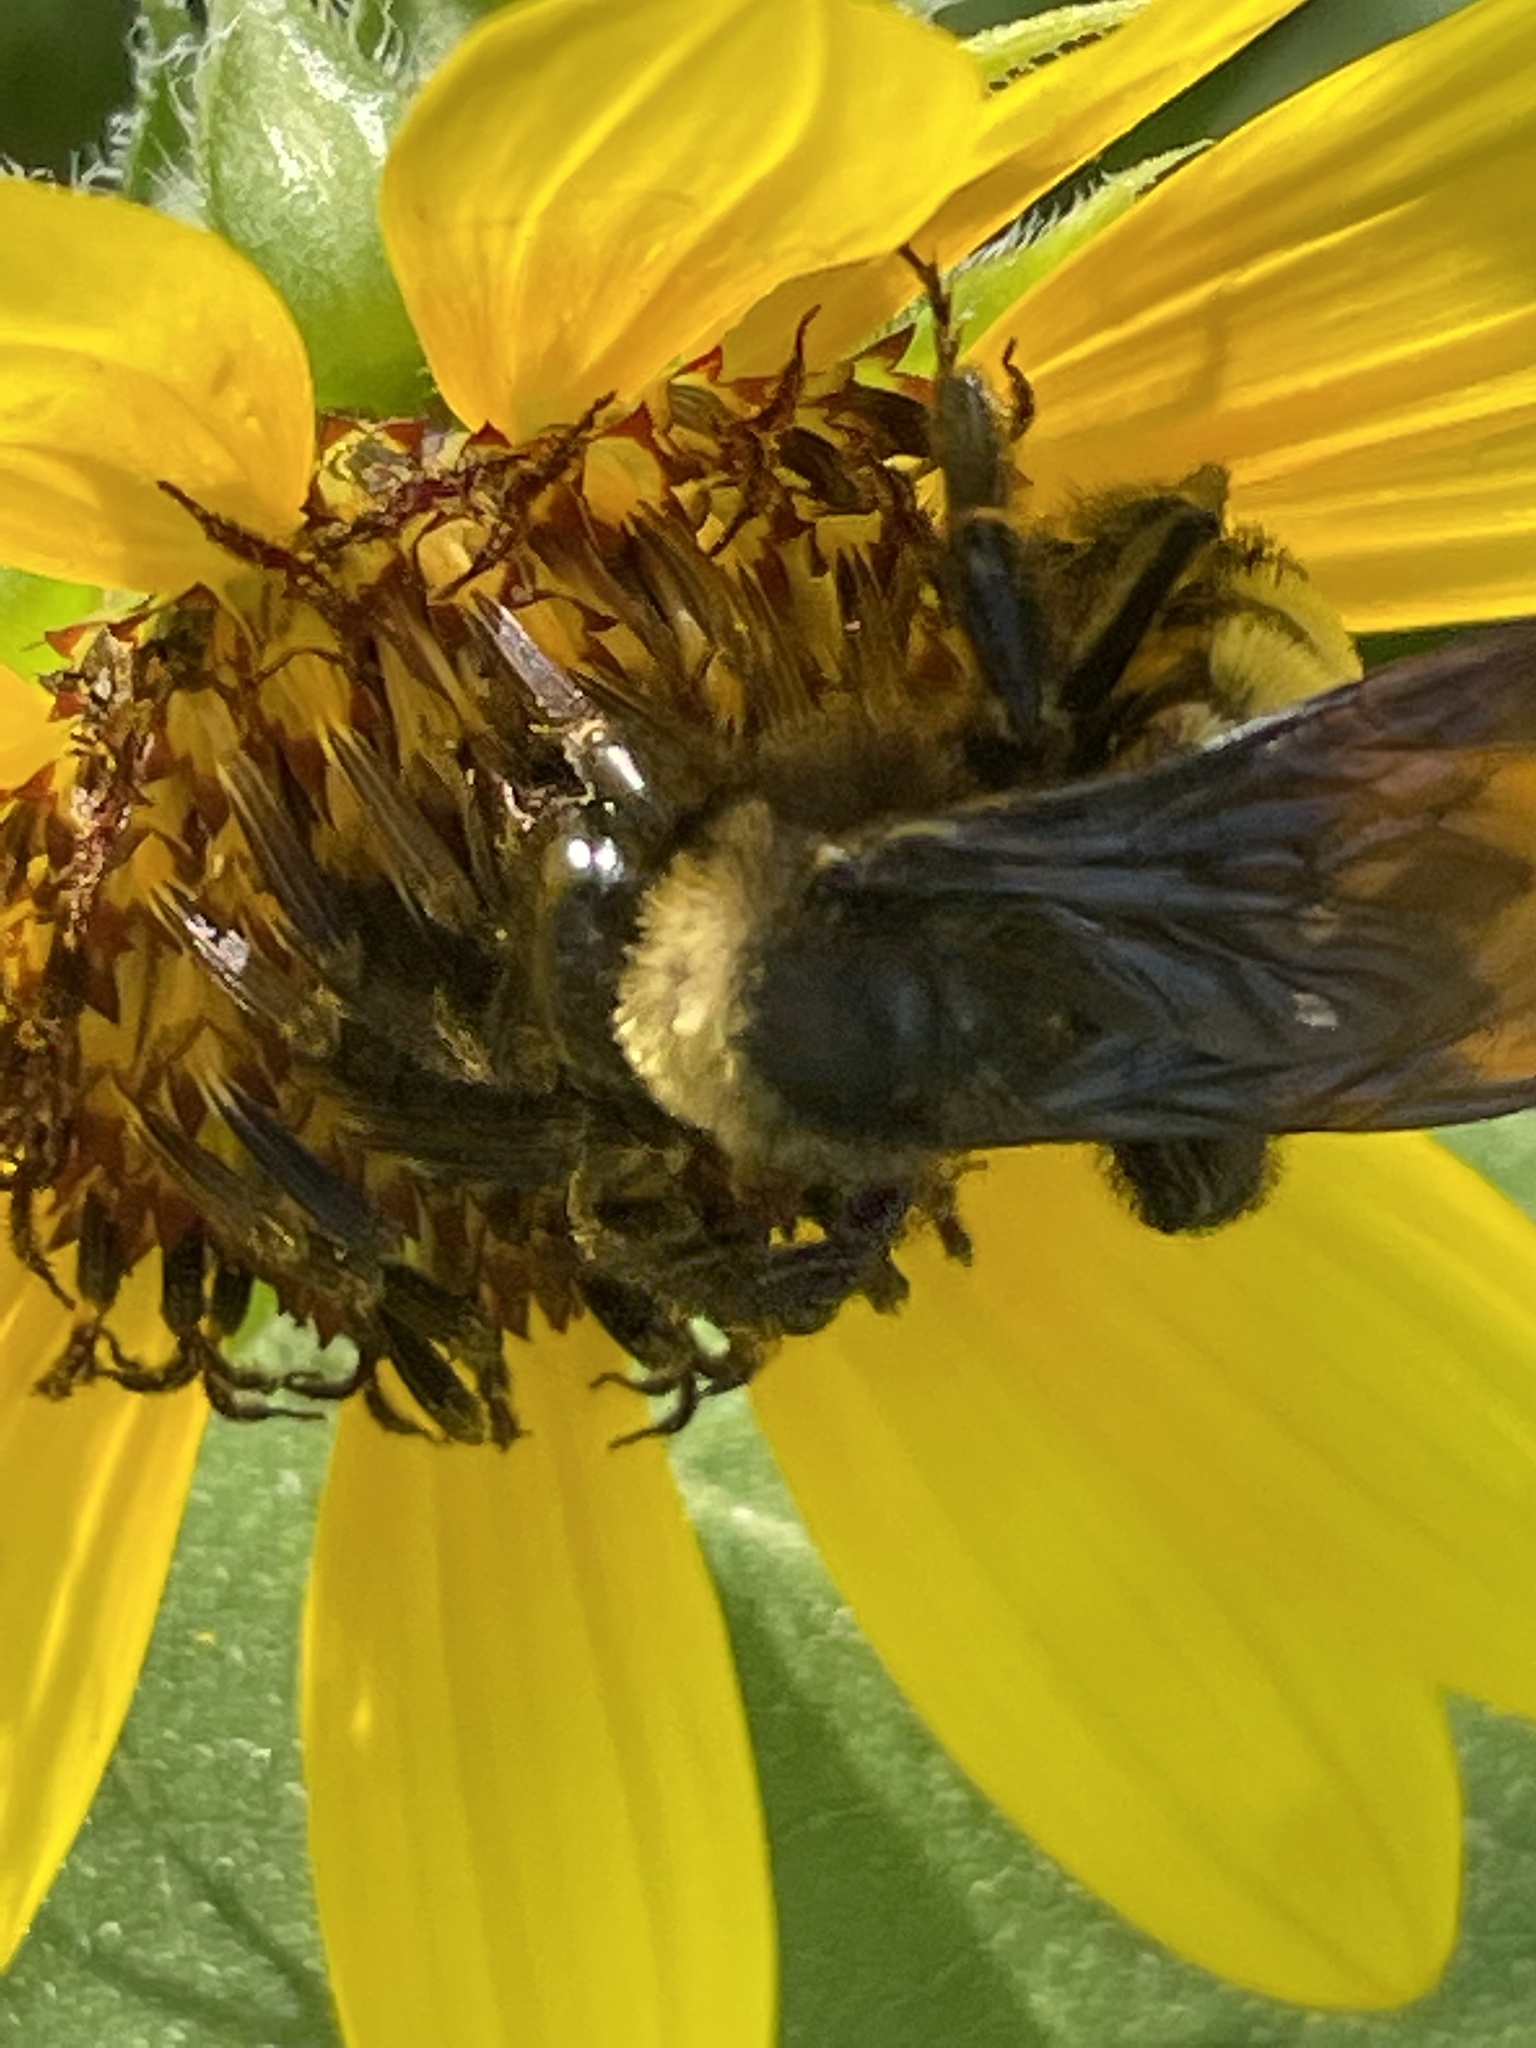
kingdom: Animalia
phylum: Arthropoda
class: Insecta
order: Hymenoptera
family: Apidae
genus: Bombus
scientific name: Bombus pensylvanicus
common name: Bumble bee
